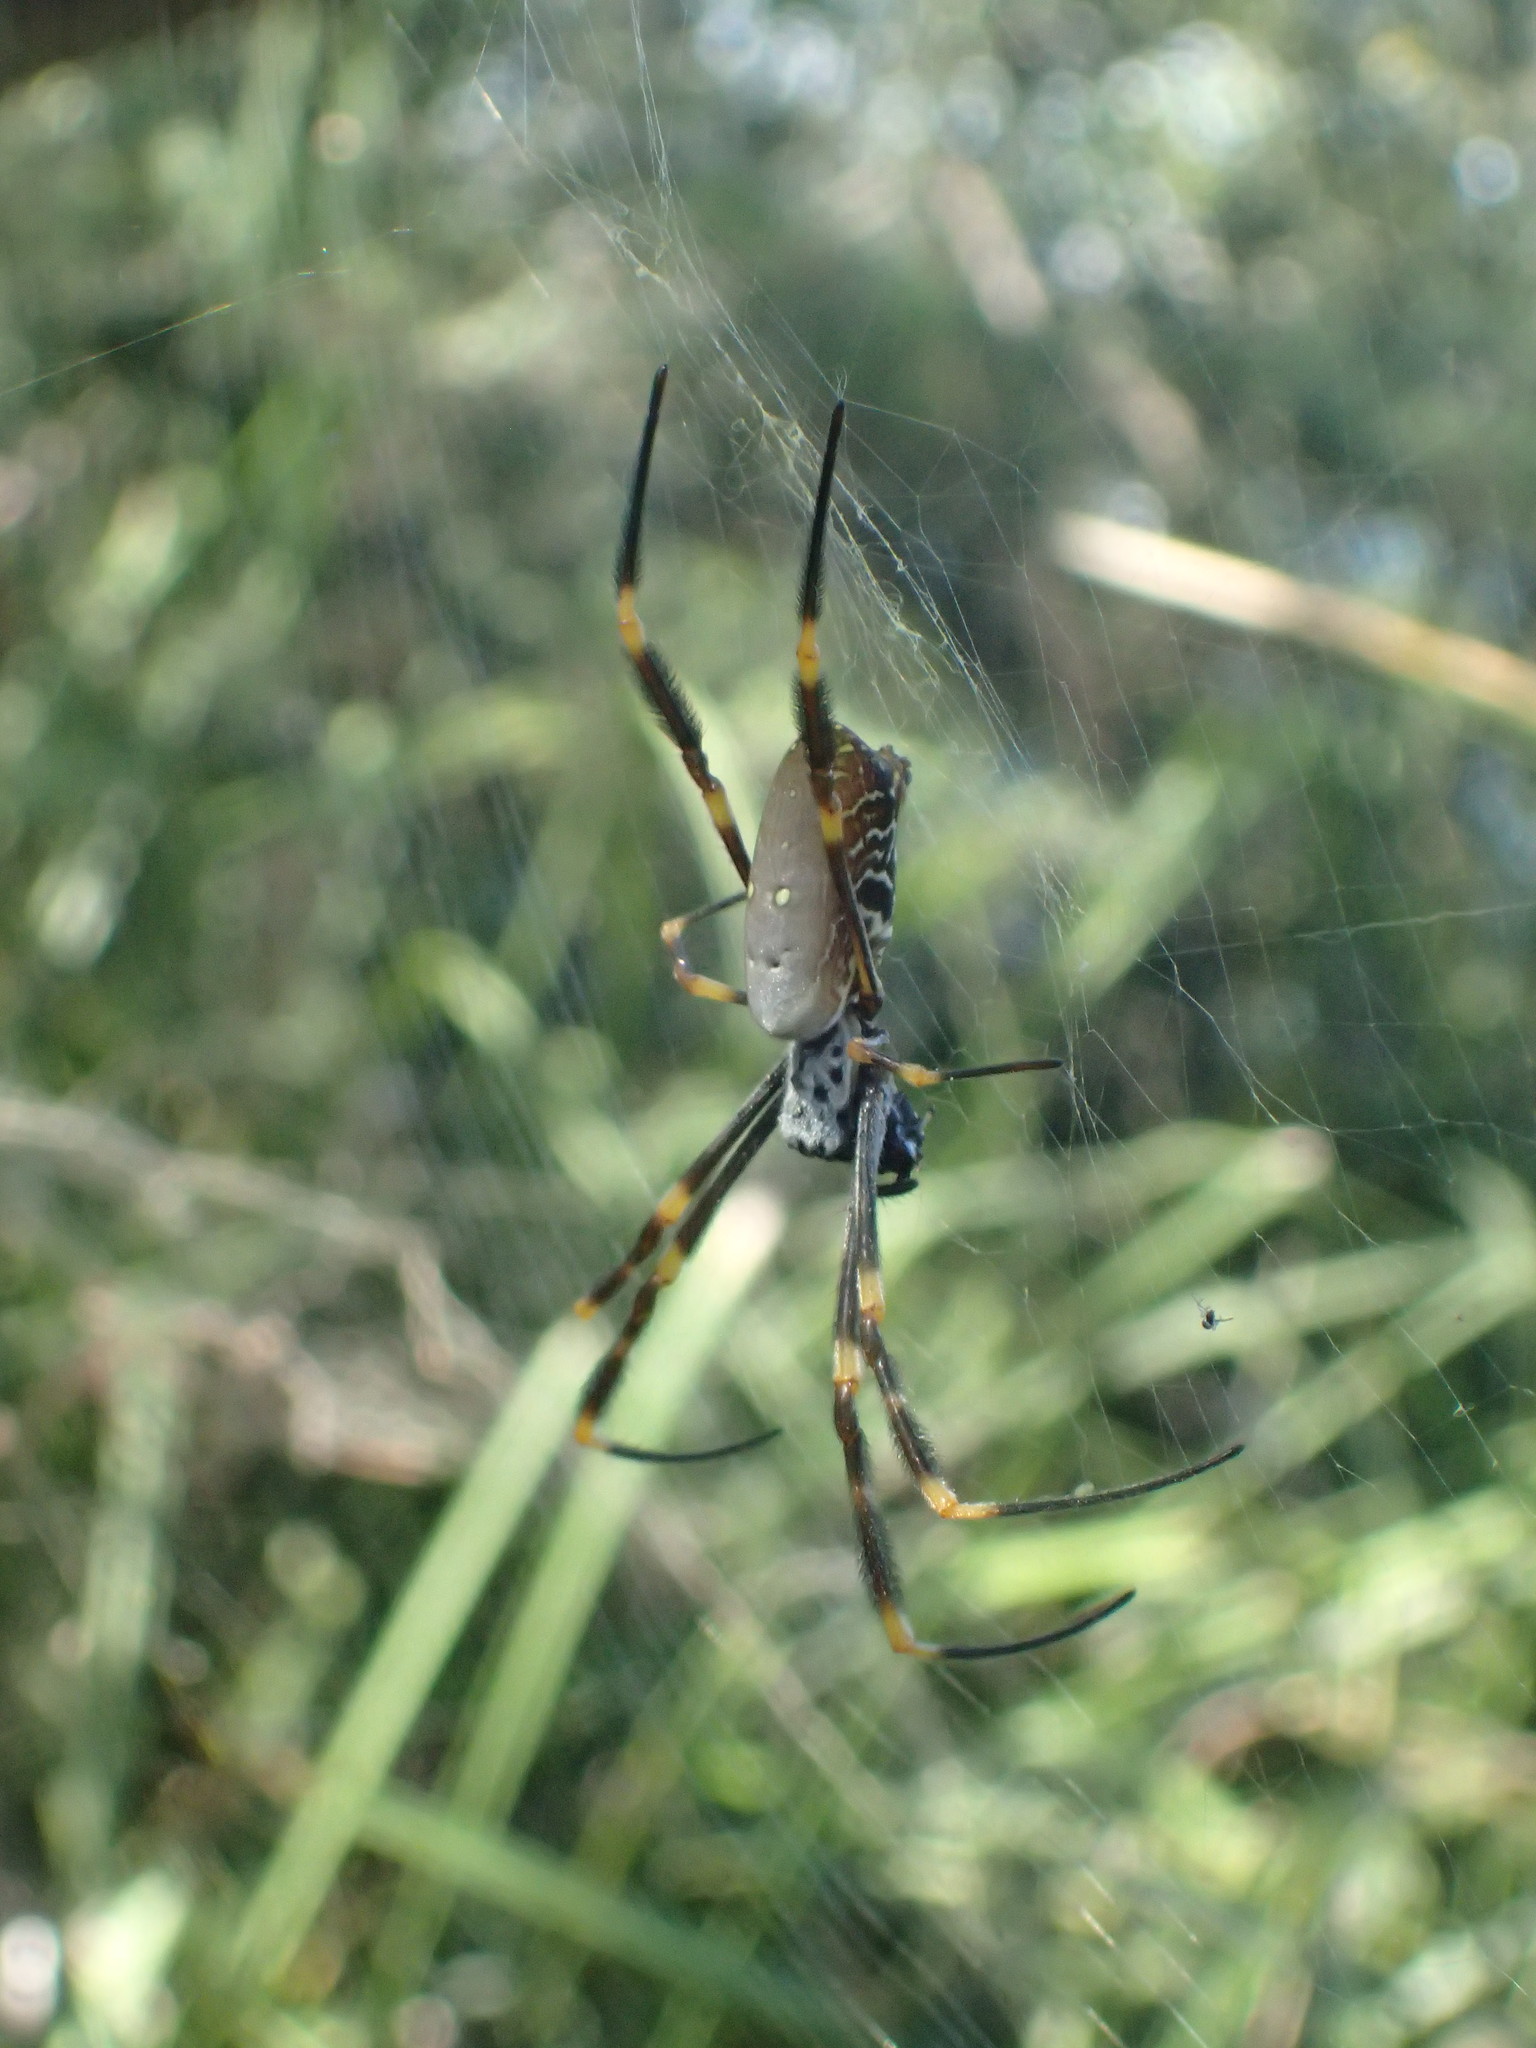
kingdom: Animalia
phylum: Arthropoda
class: Arachnida
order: Araneae
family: Araneidae
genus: Trichonephila
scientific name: Trichonephila plumipes
